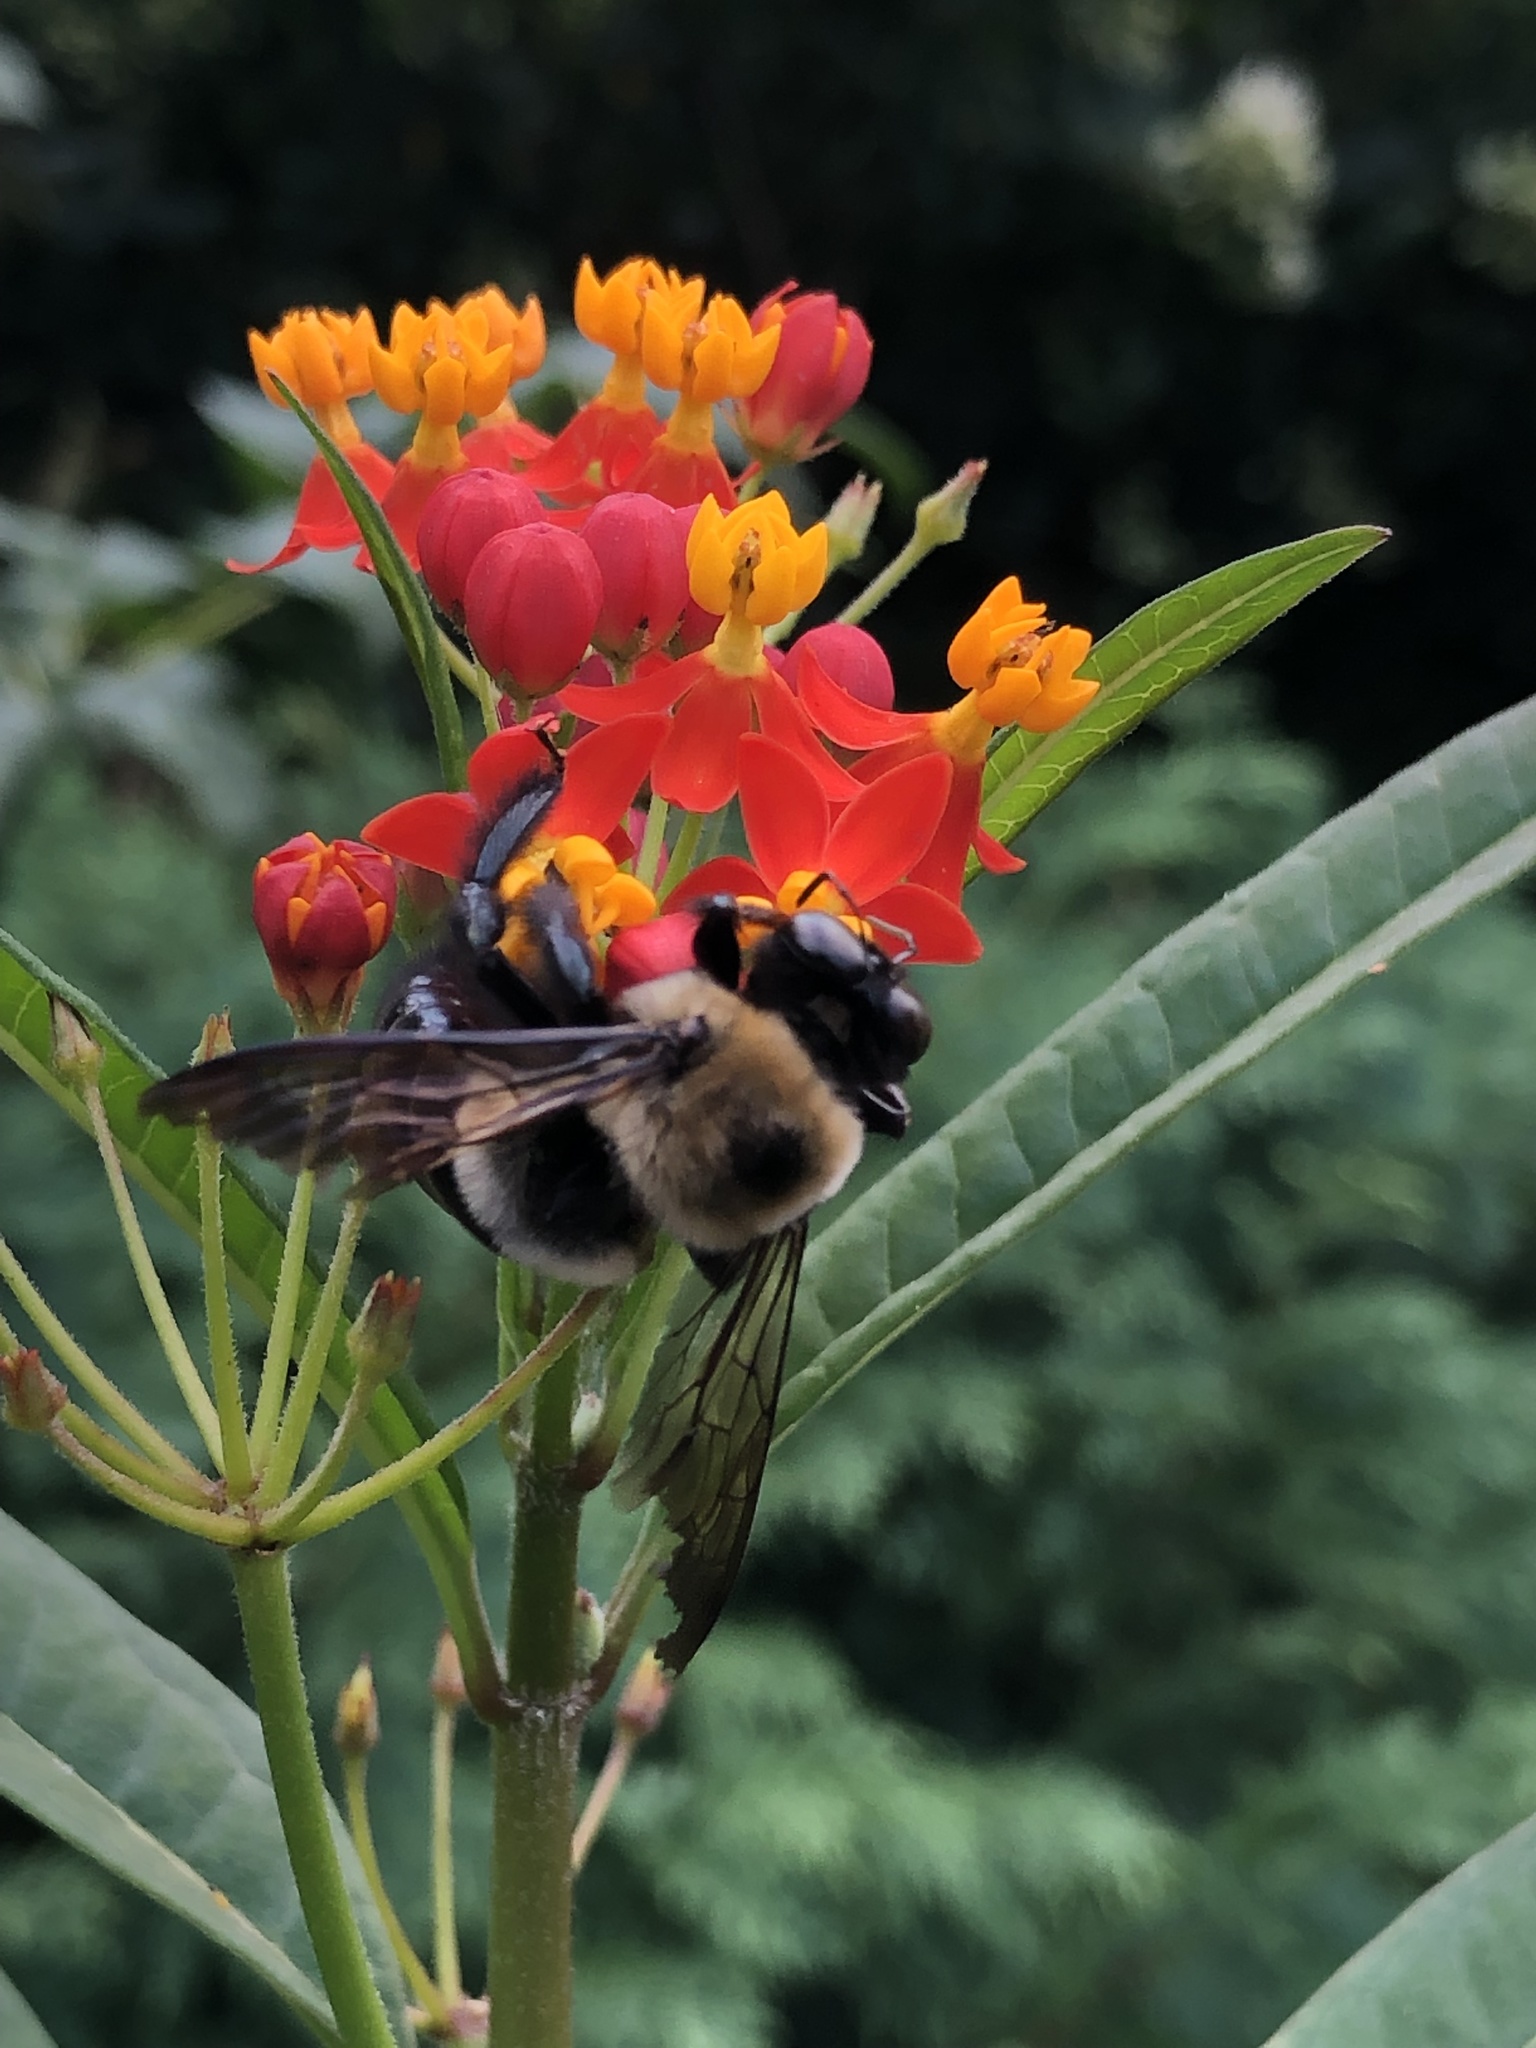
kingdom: Animalia
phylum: Arthropoda
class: Insecta
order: Hymenoptera
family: Apidae
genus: Xylocopa
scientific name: Xylocopa virginica
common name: Carpenter bee
